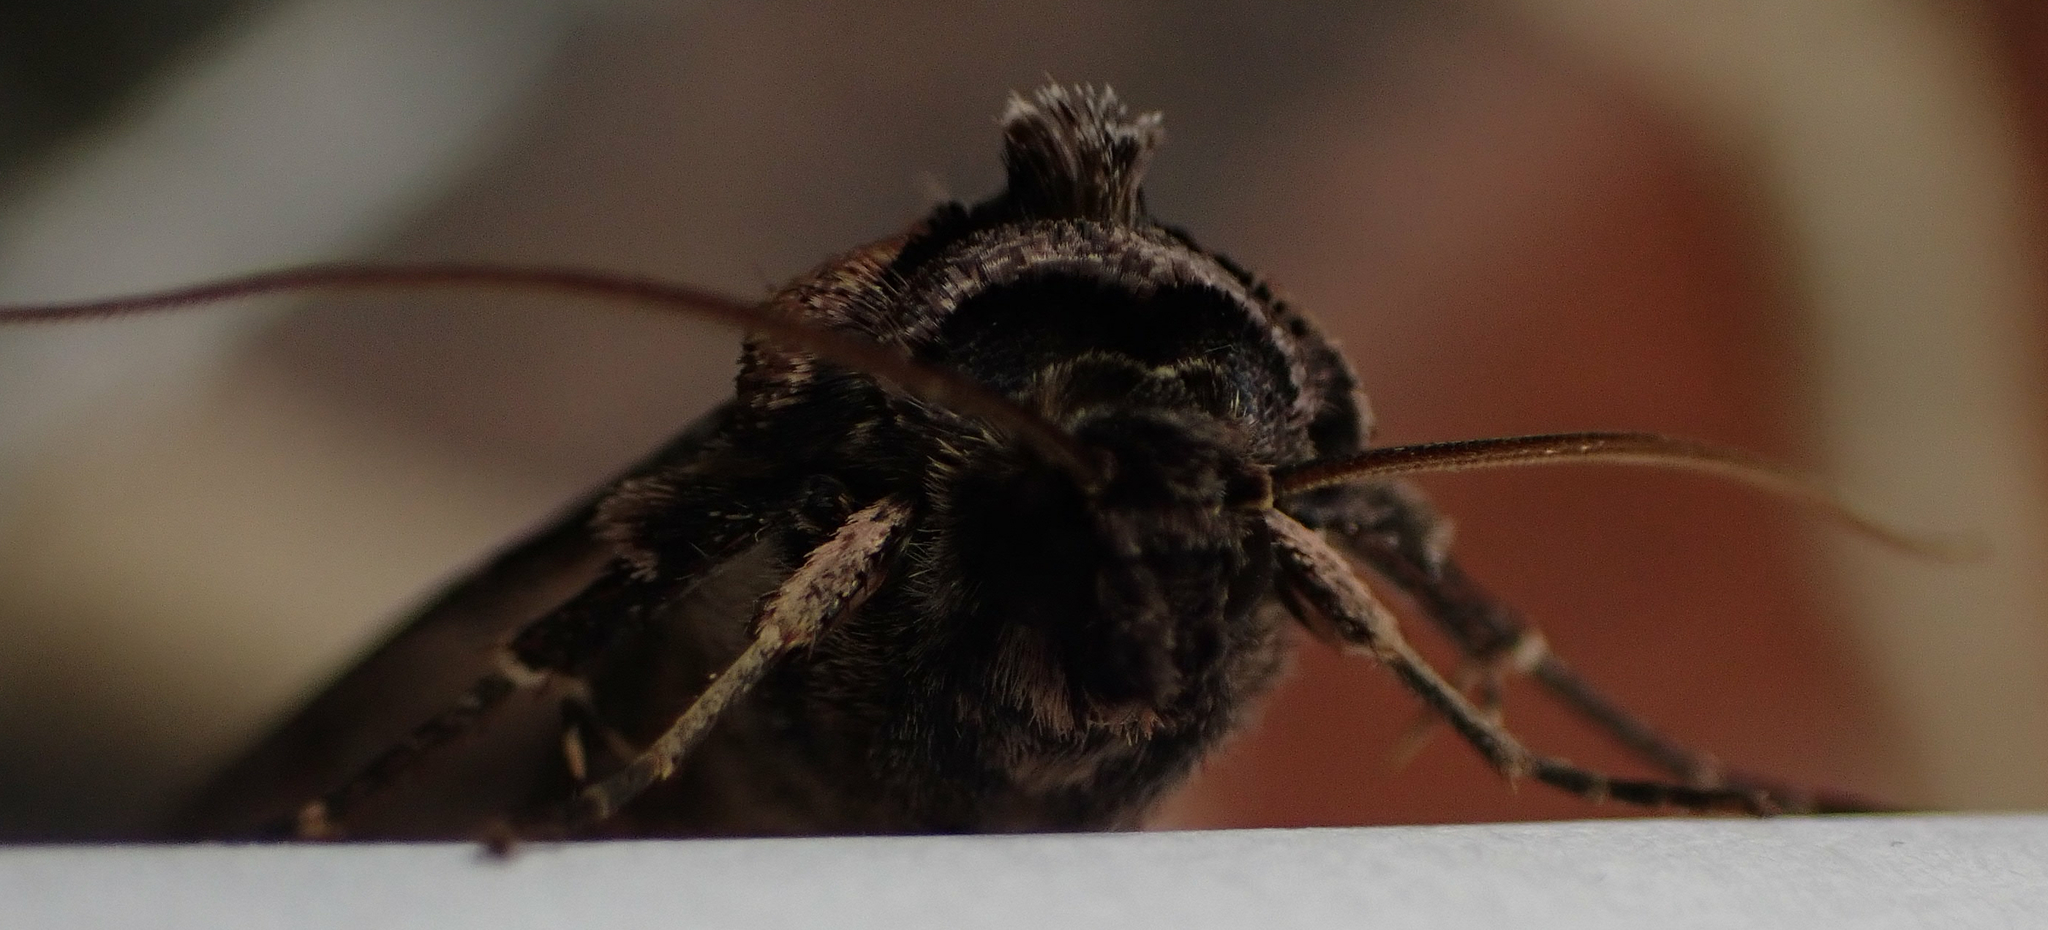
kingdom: Animalia
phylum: Arthropoda
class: Insecta
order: Lepidoptera
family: Noctuidae
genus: Feltia
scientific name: Feltia herilis
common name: Master's dart
